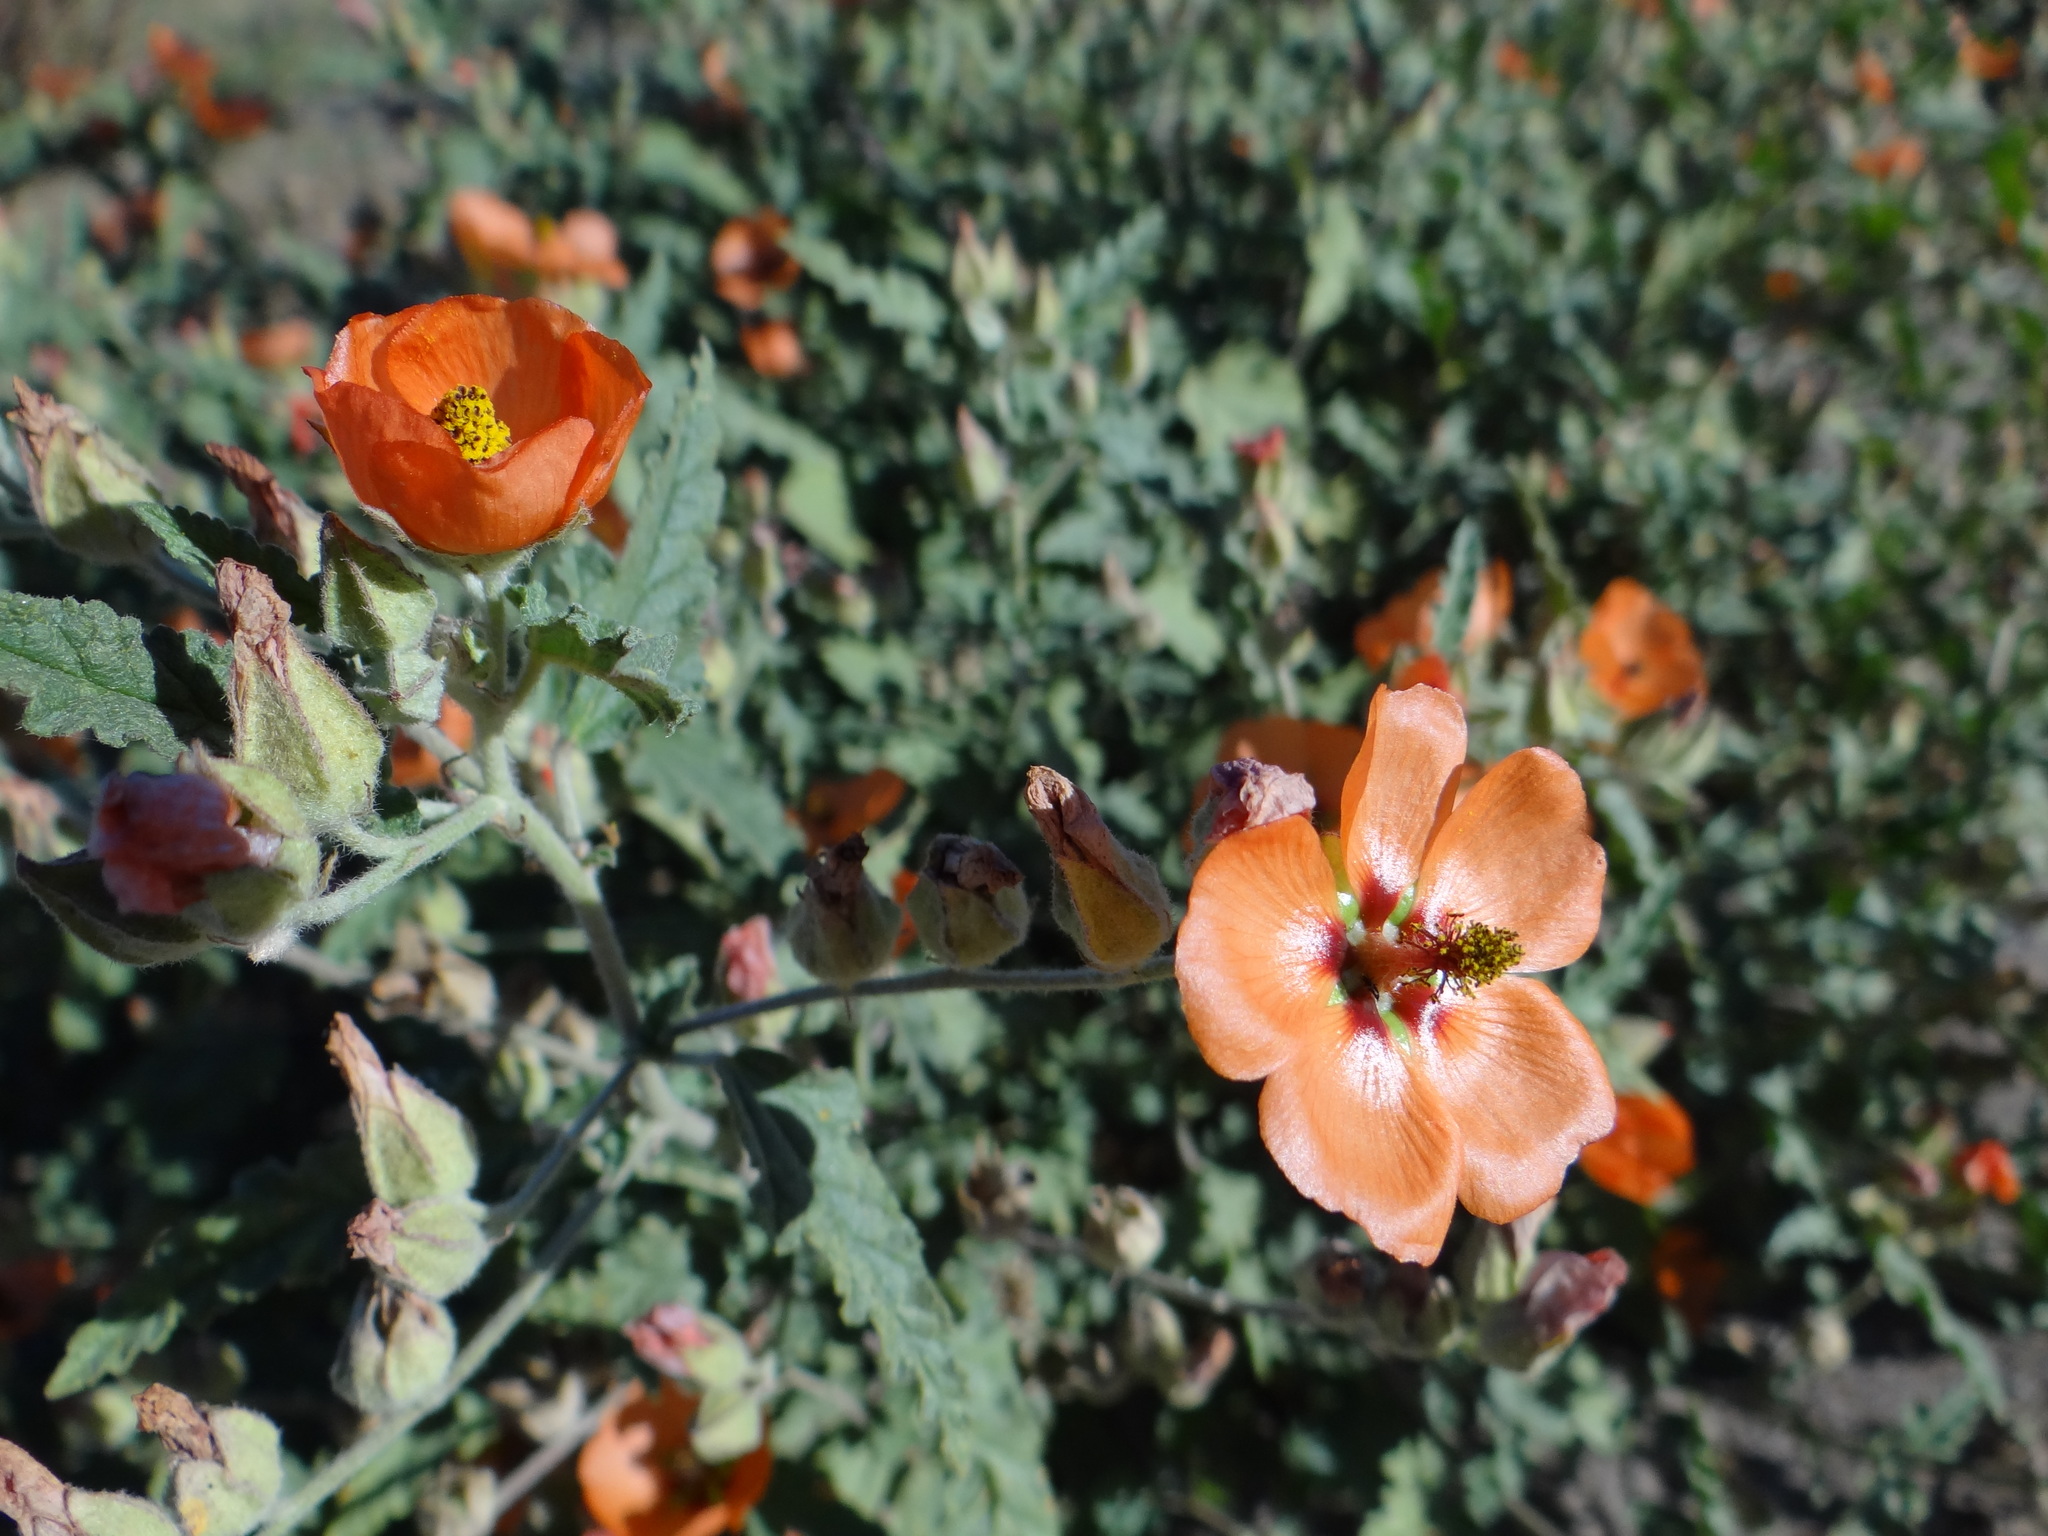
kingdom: Plantae
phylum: Tracheophyta
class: Magnoliopsida
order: Malvales
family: Malvaceae
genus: Sphaeralcea
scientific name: Sphaeralcea miniata
